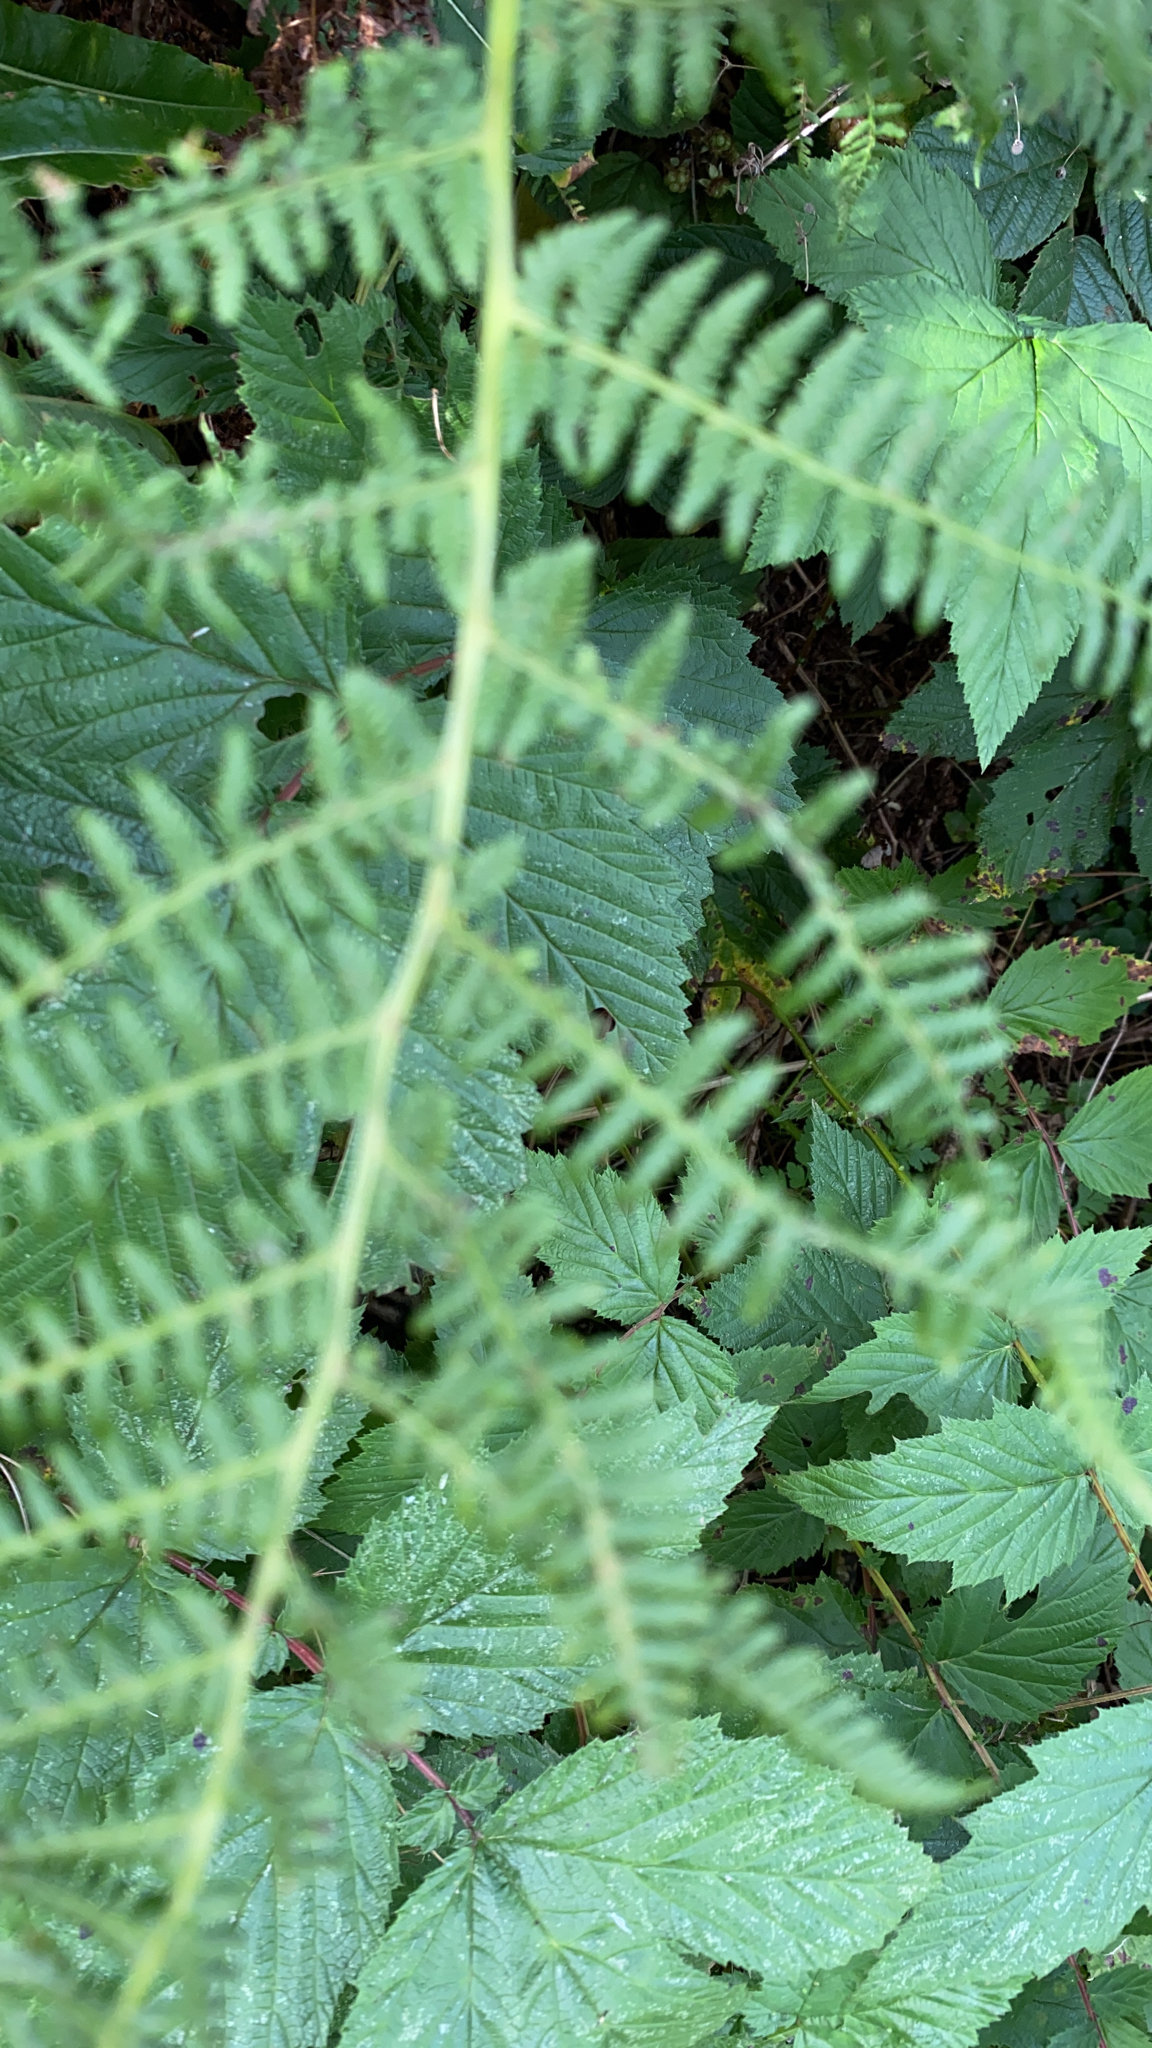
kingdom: Plantae
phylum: Tracheophyta
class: Magnoliopsida
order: Rosales
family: Rosaceae
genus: Filipendula
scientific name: Filipendula ulmaria
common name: Meadowsweet
